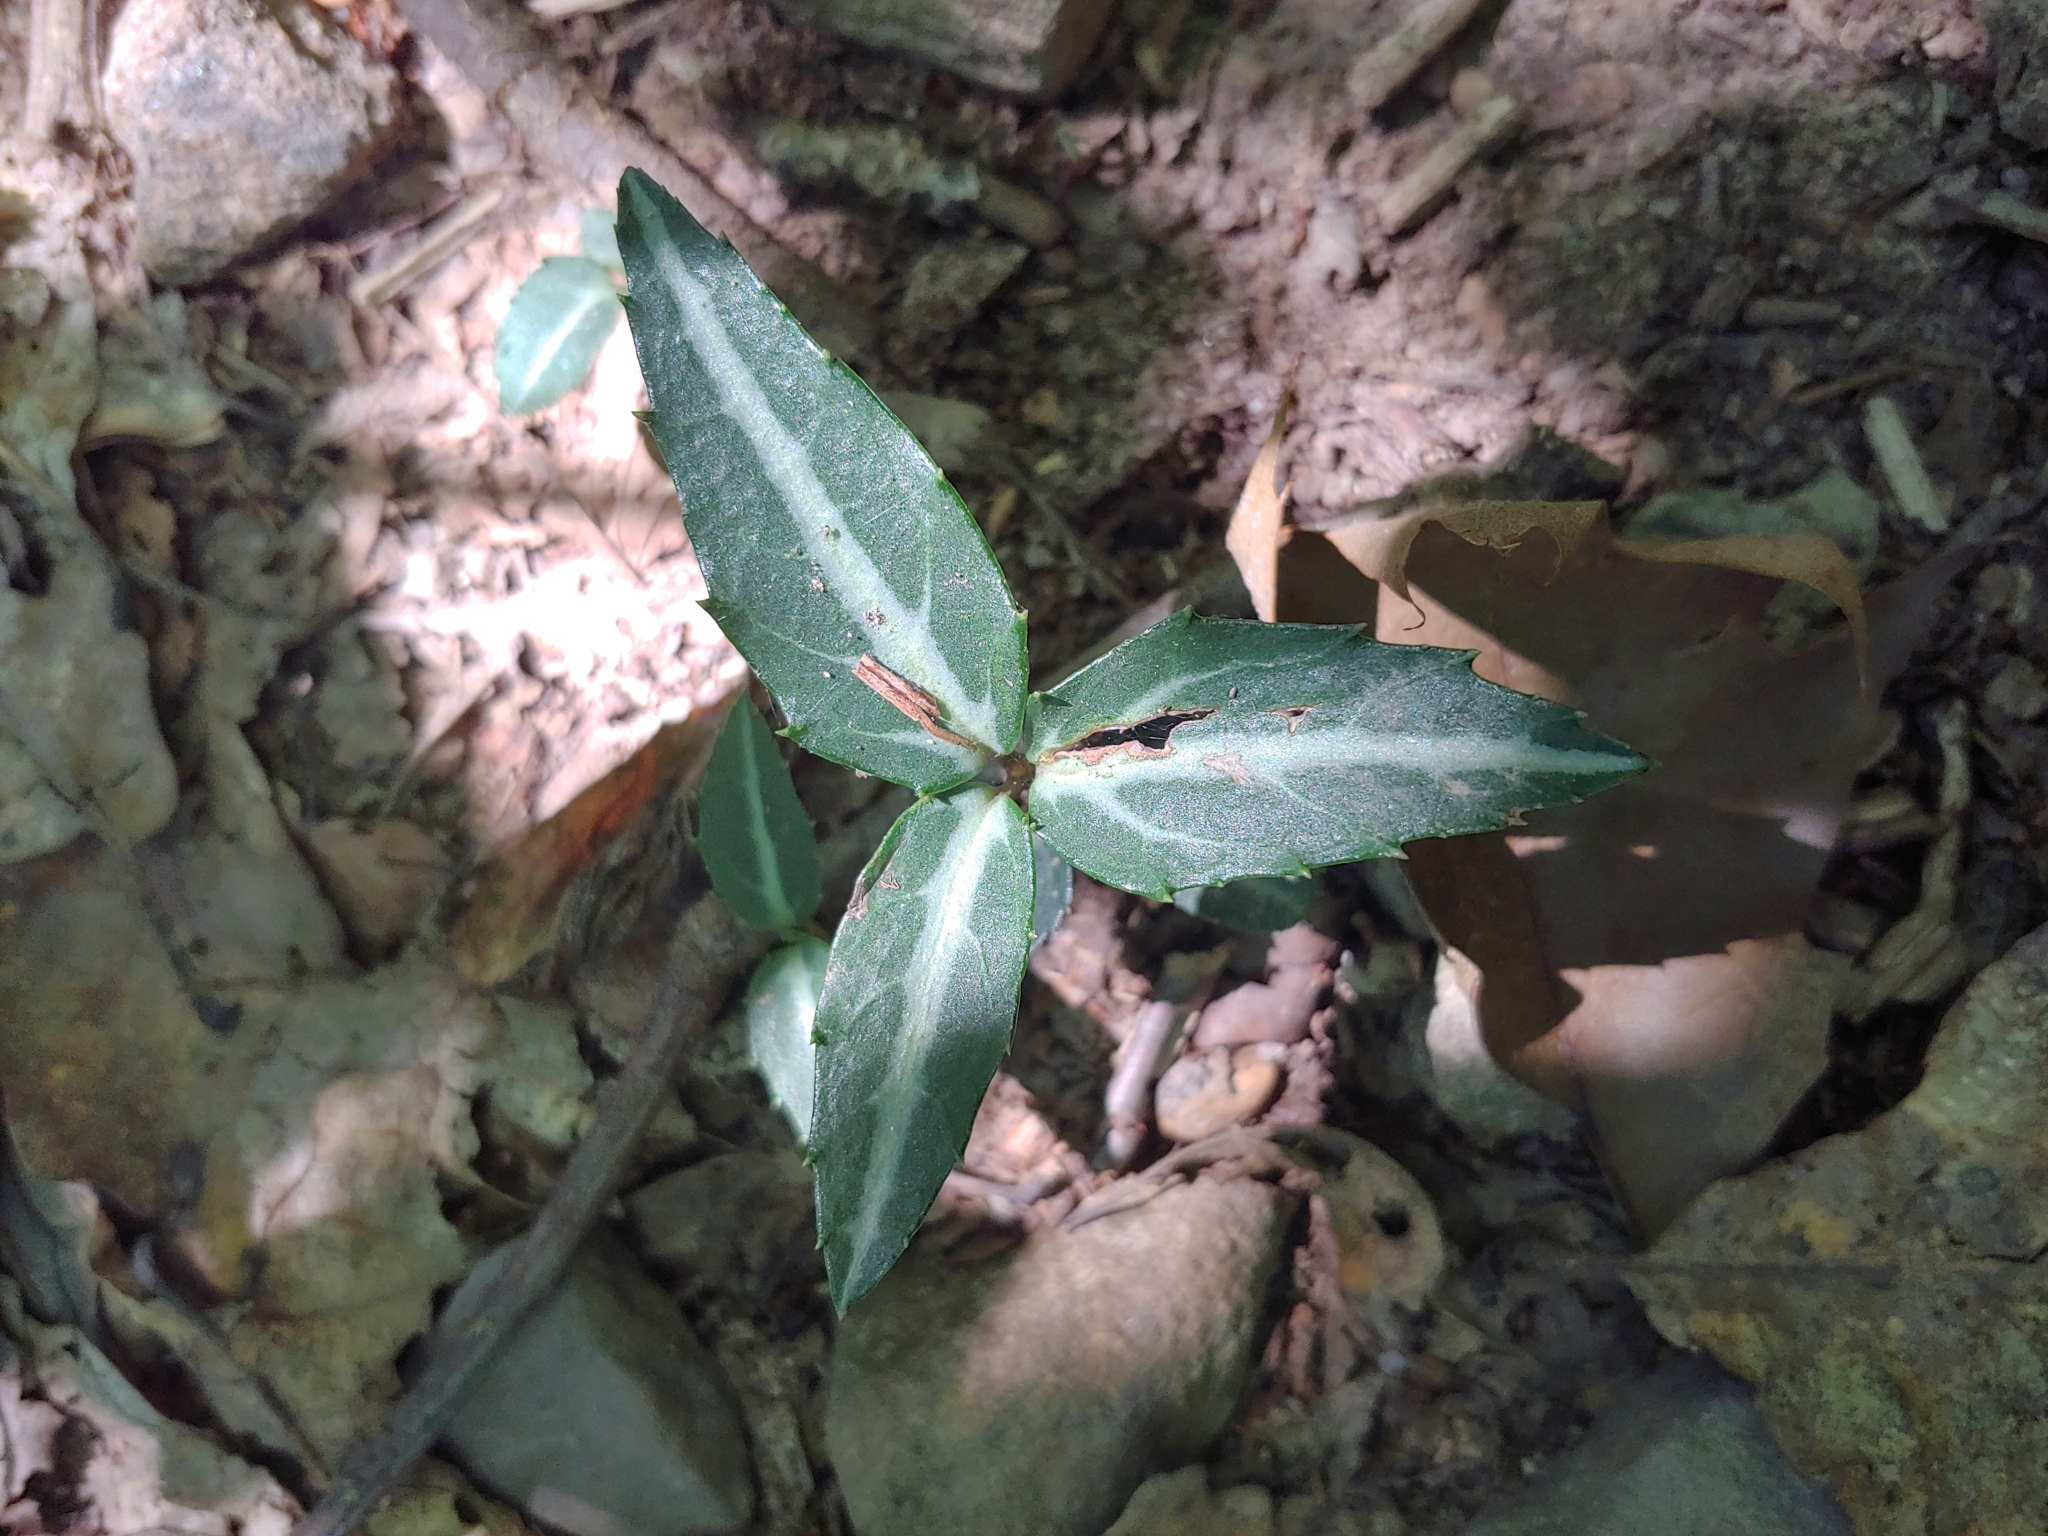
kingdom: Plantae
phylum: Tracheophyta
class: Magnoliopsida
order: Ericales
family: Ericaceae
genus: Chimaphila
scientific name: Chimaphila maculata
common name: Spotted pipsissewa
